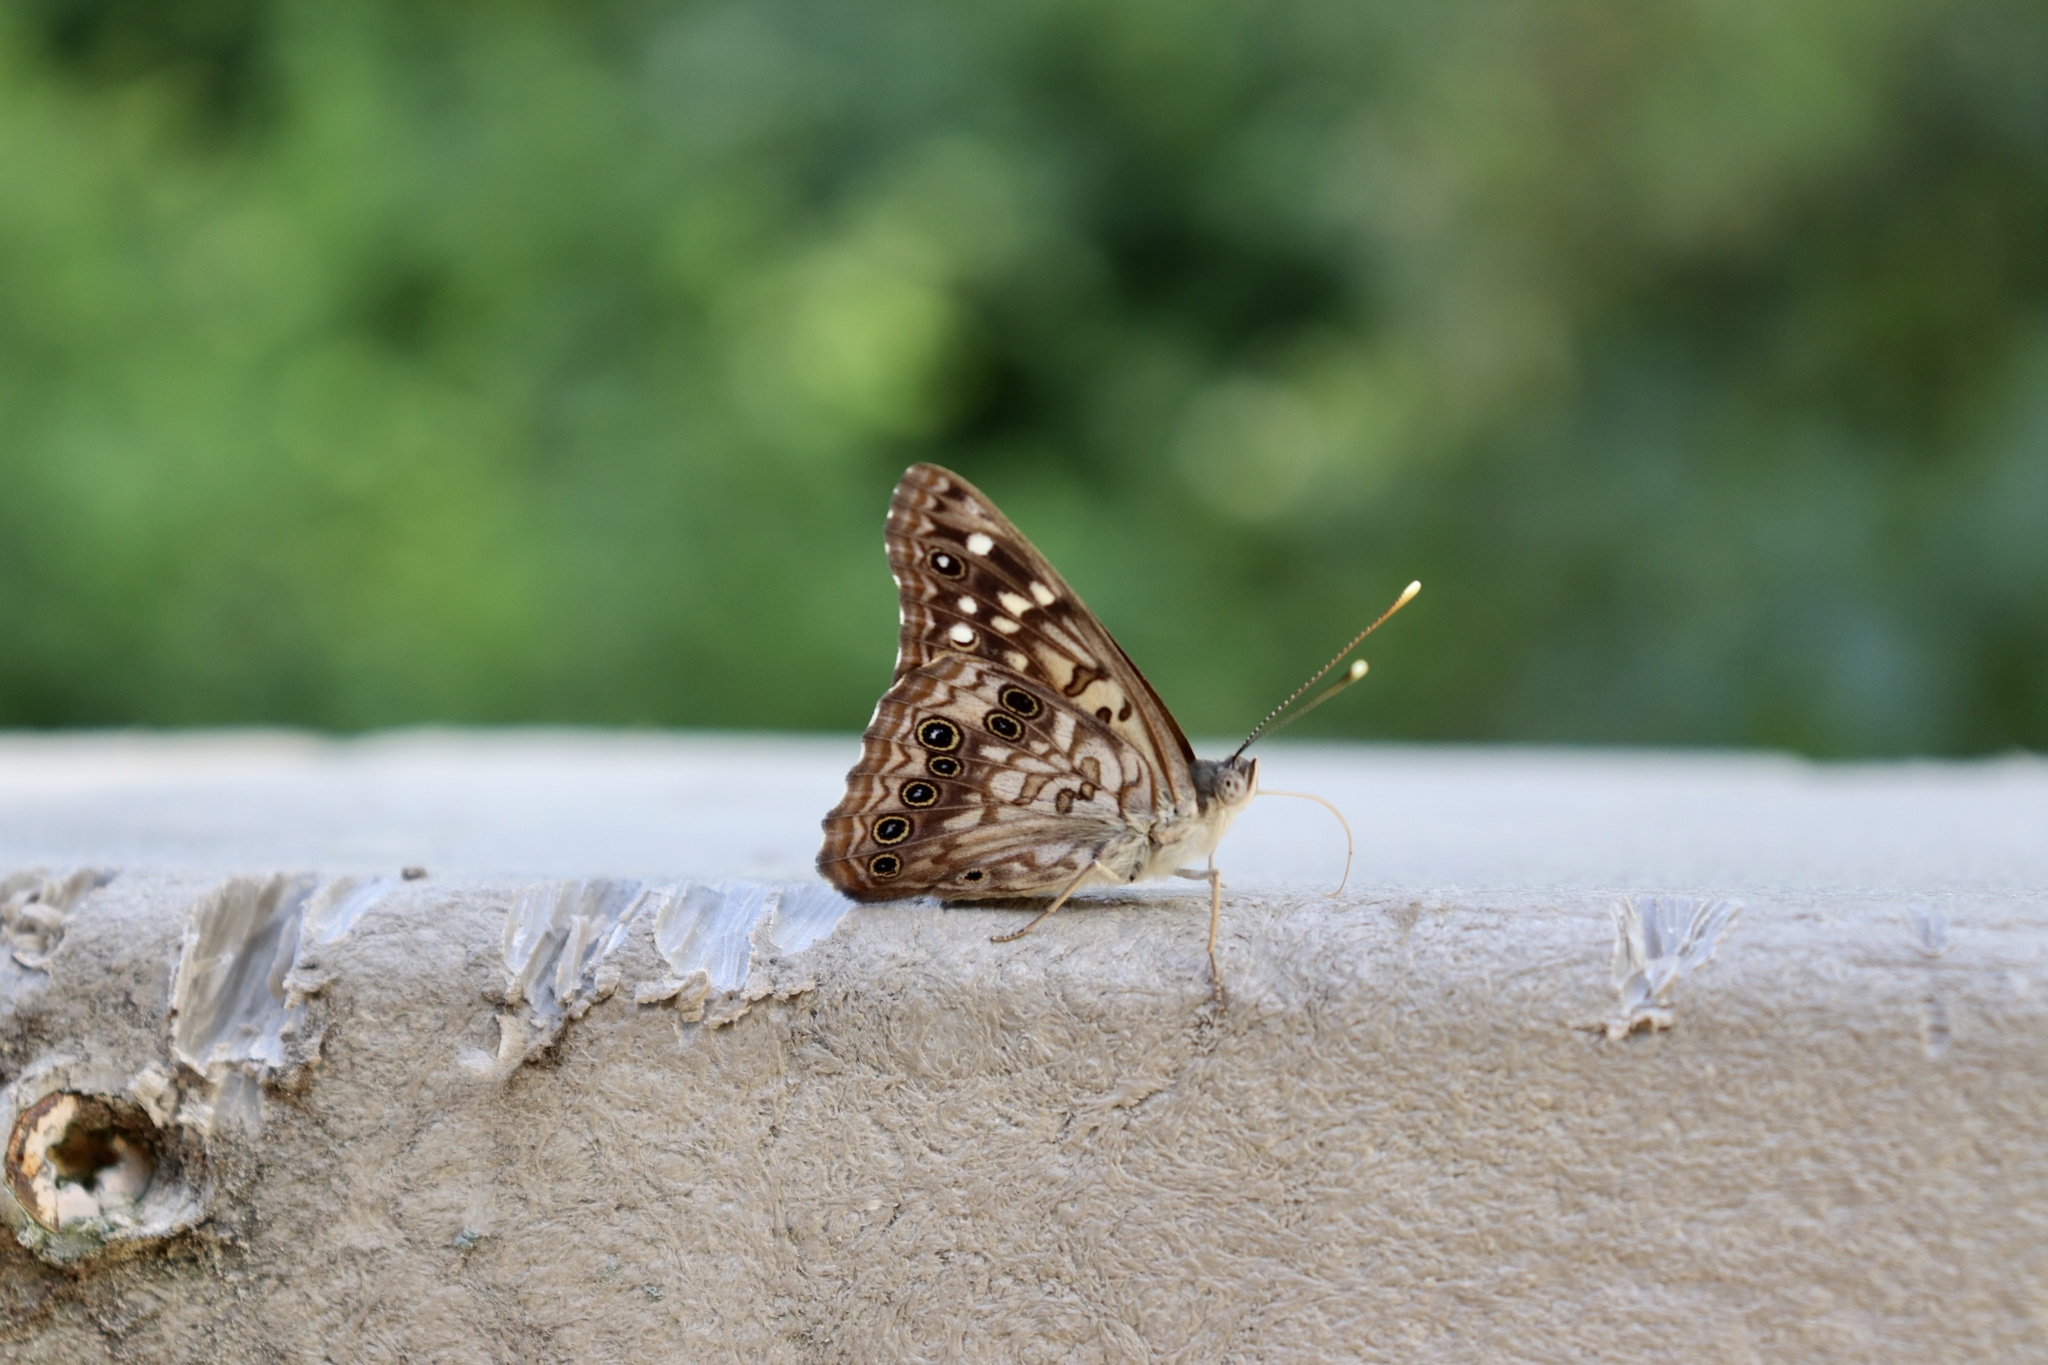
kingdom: Animalia
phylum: Arthropoda
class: Insecta
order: Lepidoptera
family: Nymphalidae
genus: Asterocampa
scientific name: Asterocampa celtis
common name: Hackberry emperor
